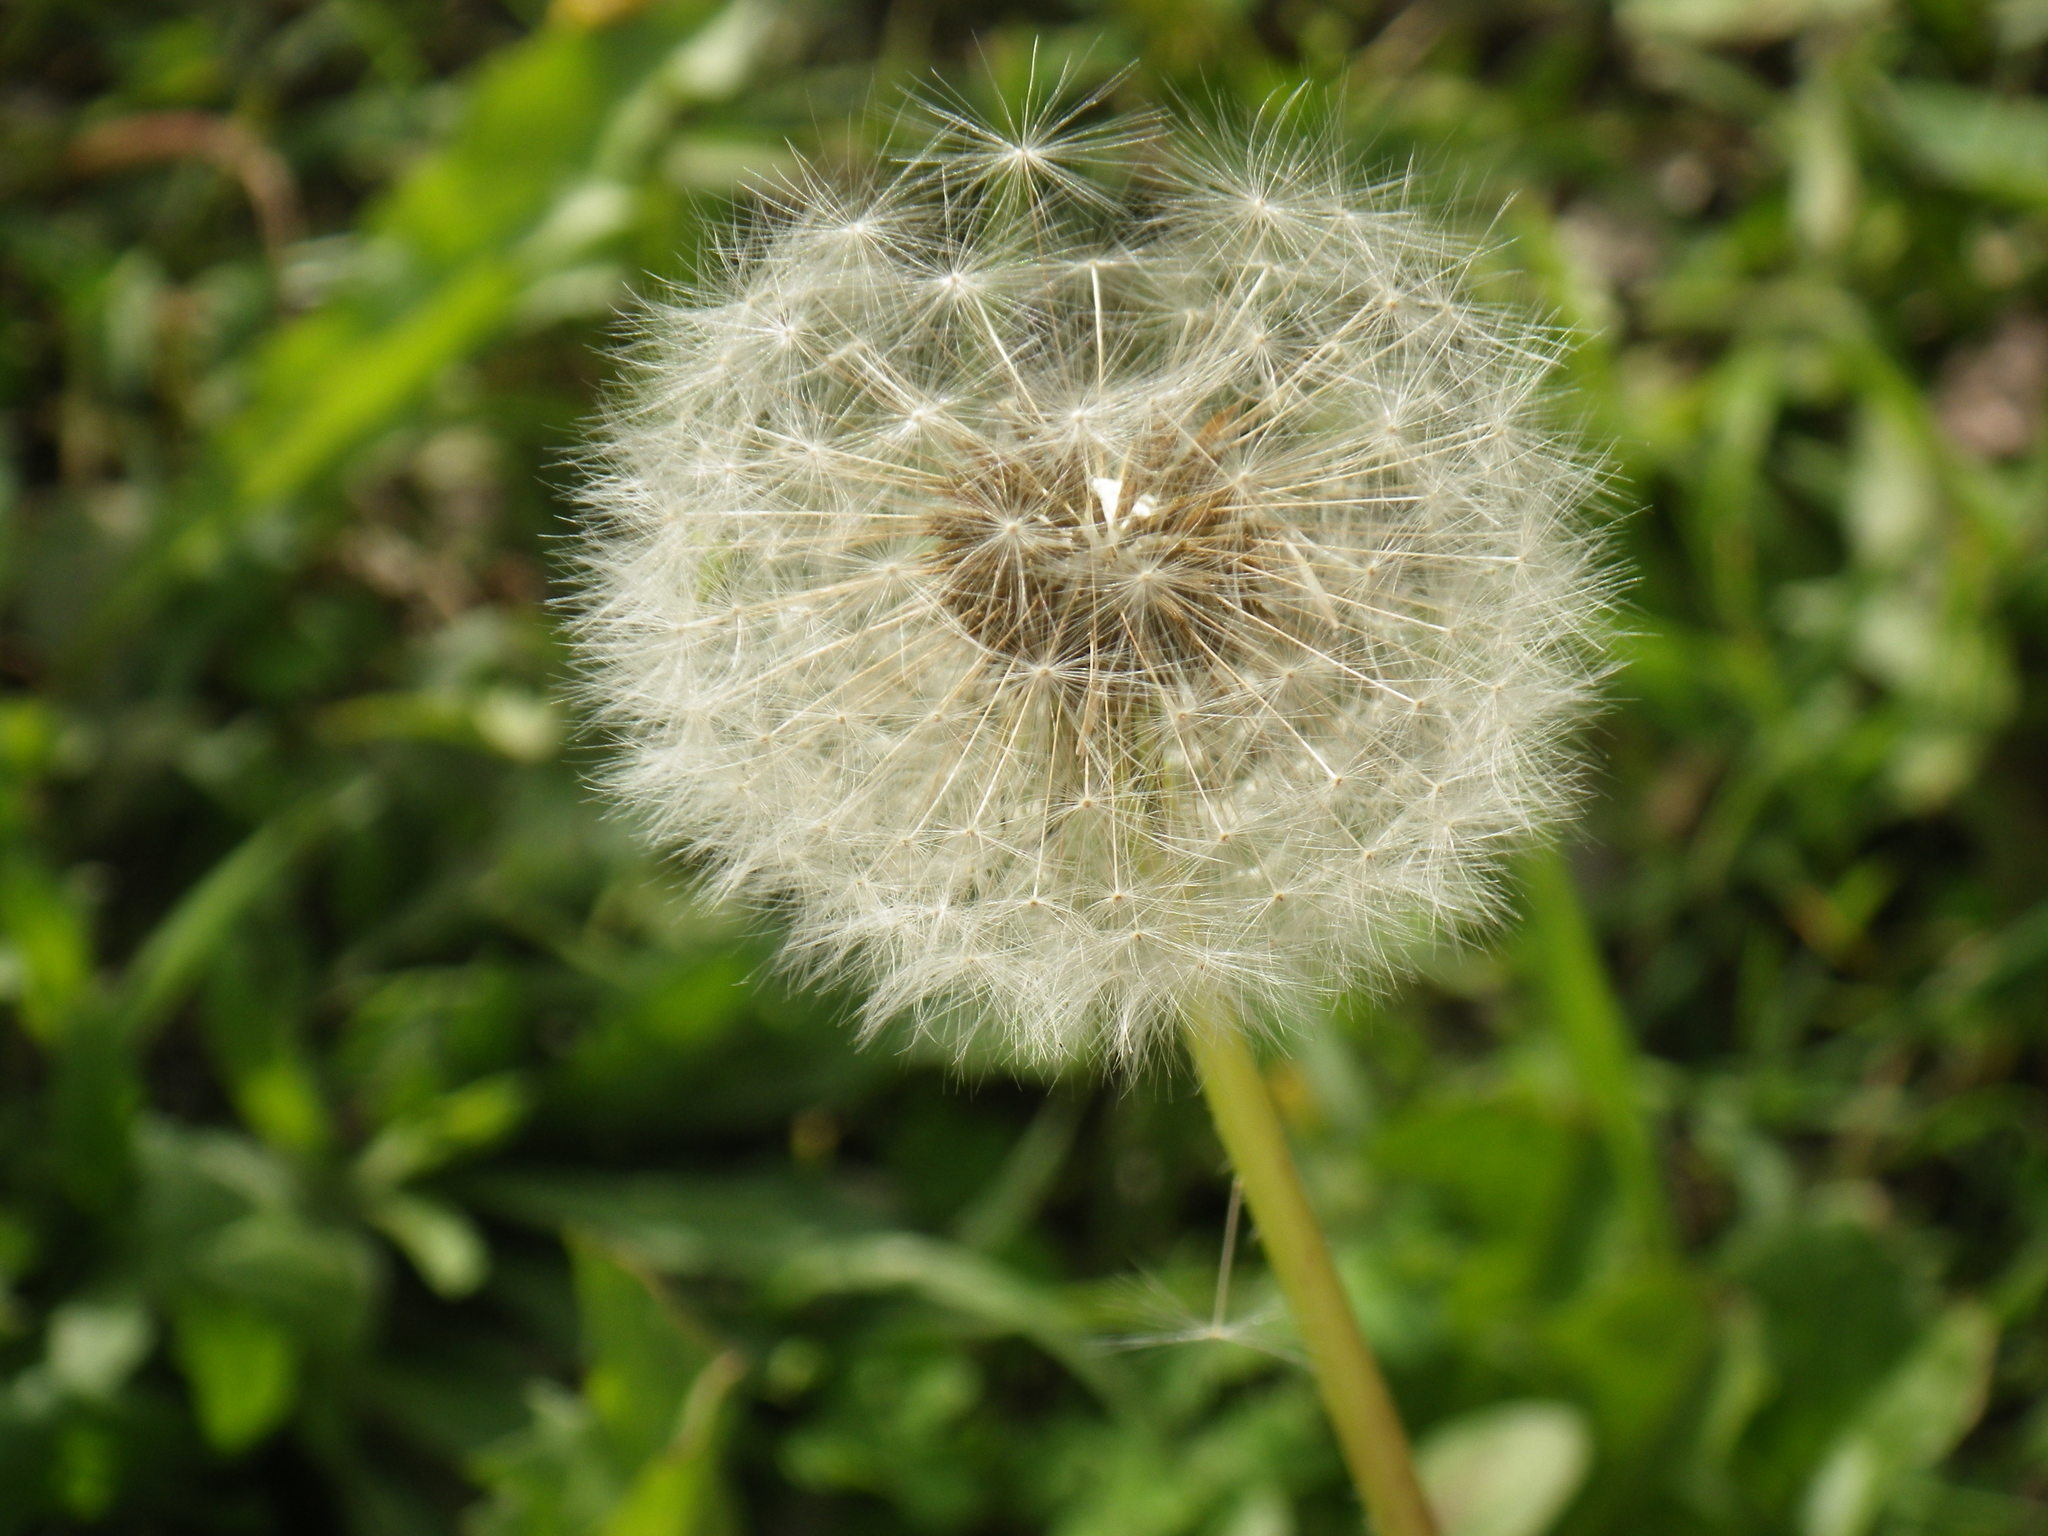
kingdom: Plantae
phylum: Tracheophyta
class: Magnoliopsida
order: Asterales
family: Asteraceae
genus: Taraxacum
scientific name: Taraxacum officinale
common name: Common dandelion
